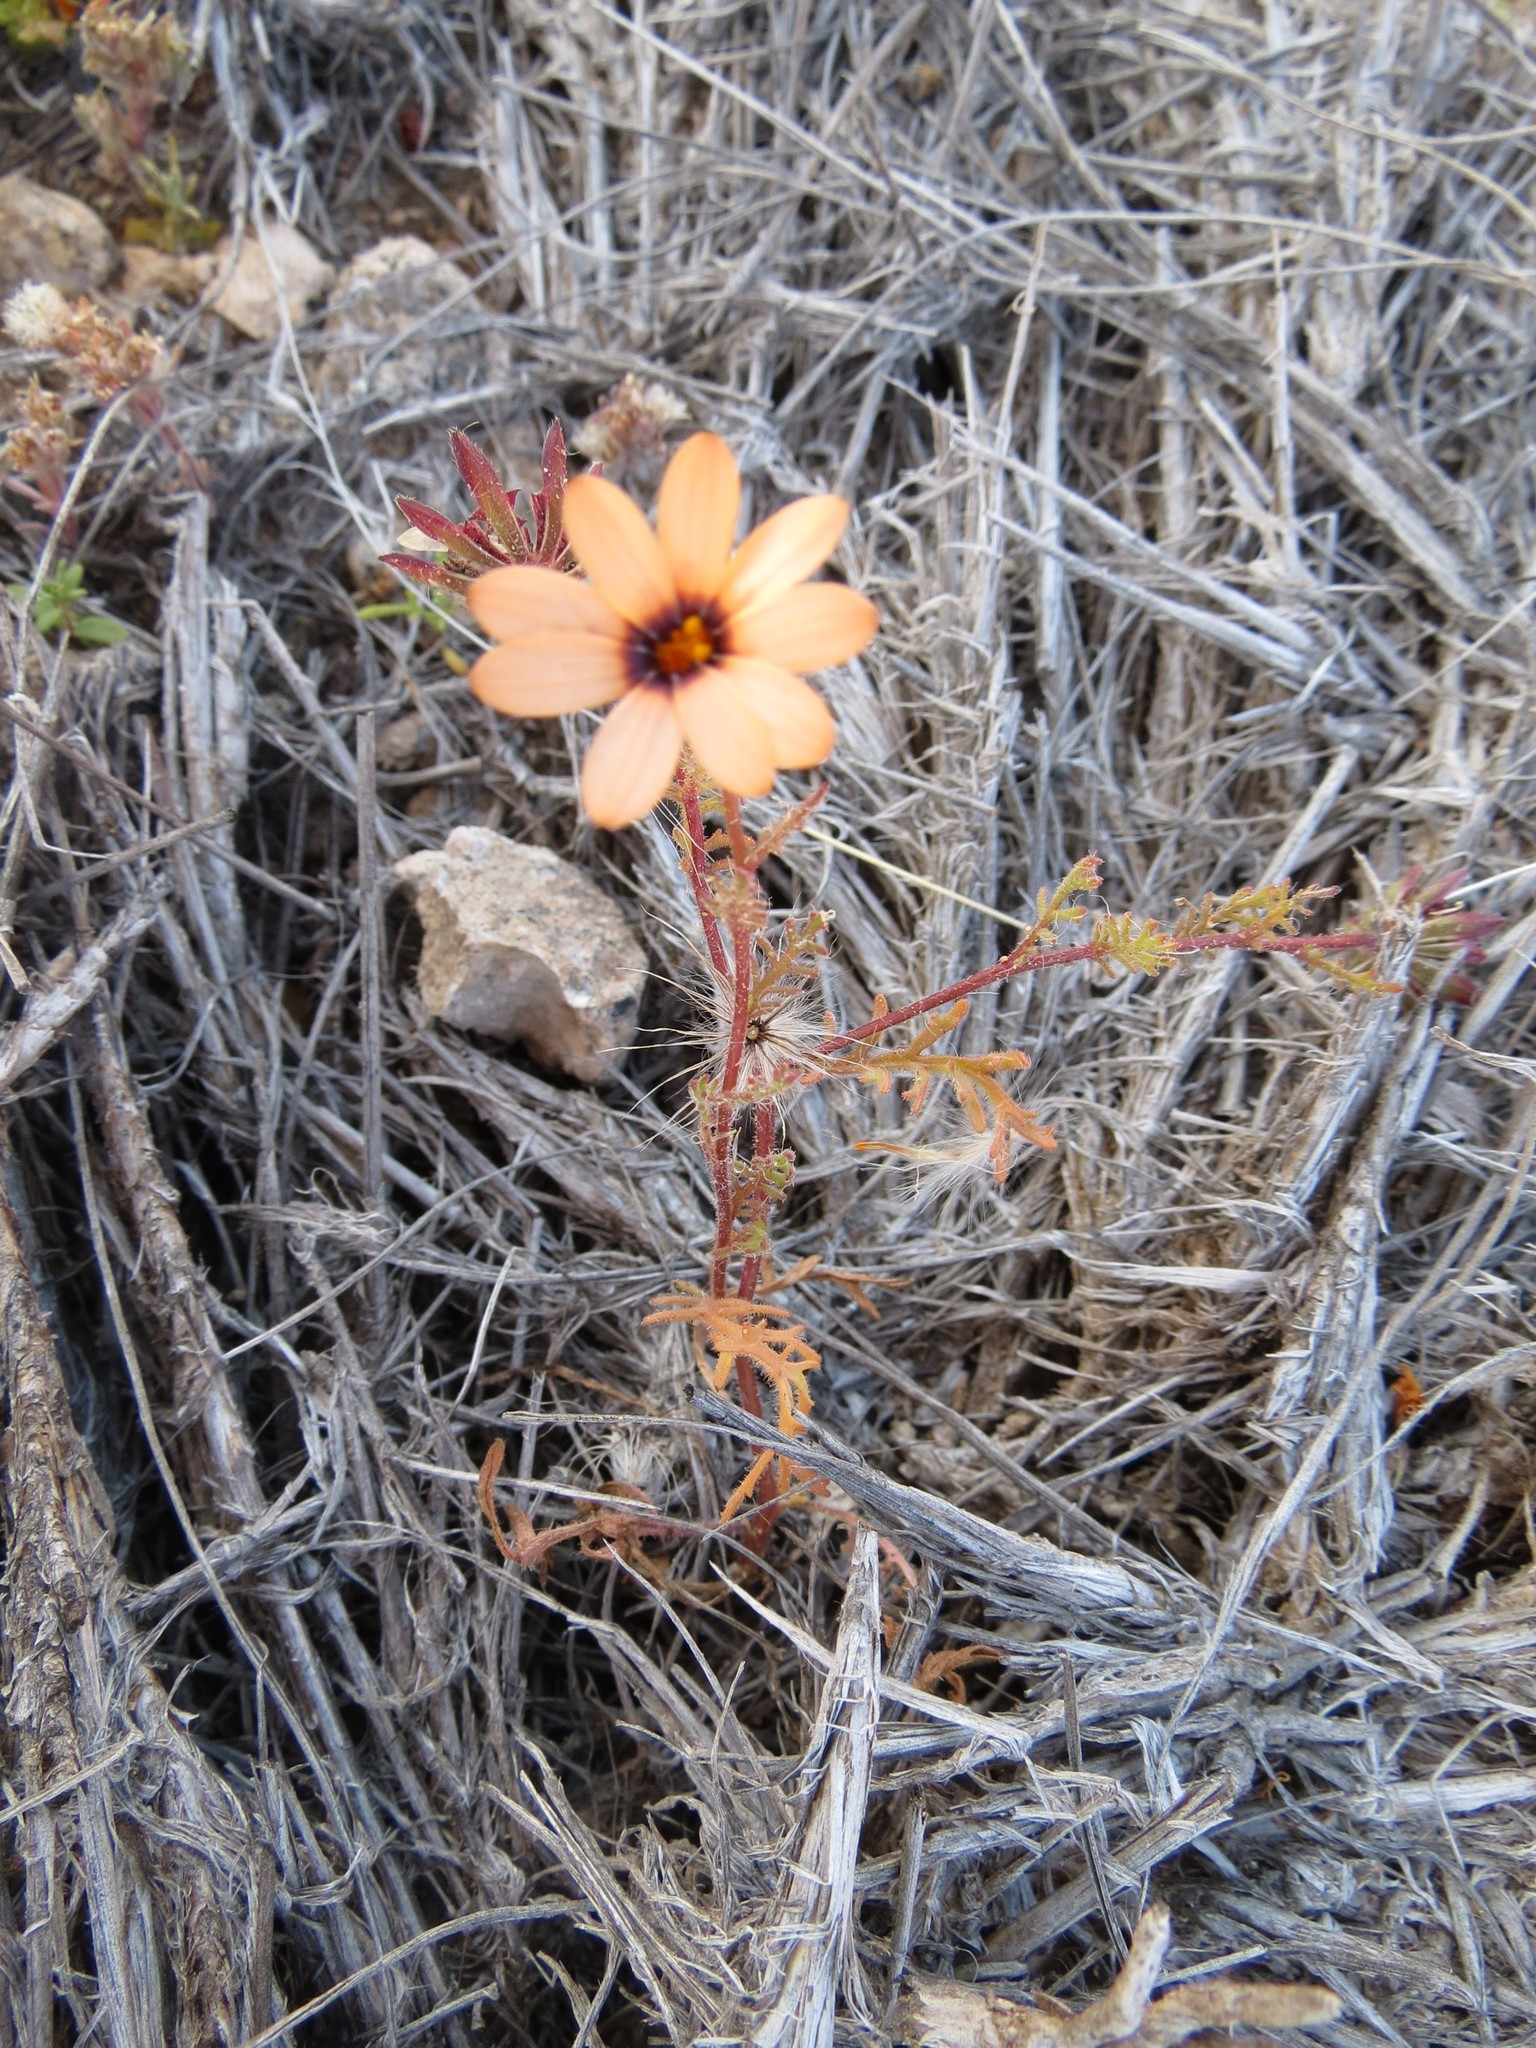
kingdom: Plantae
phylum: Tracheophyta
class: Magnoliopsida
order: Asterales
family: Asteraceae
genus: Dimorphotheca
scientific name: Dimorphotheca pinnata
